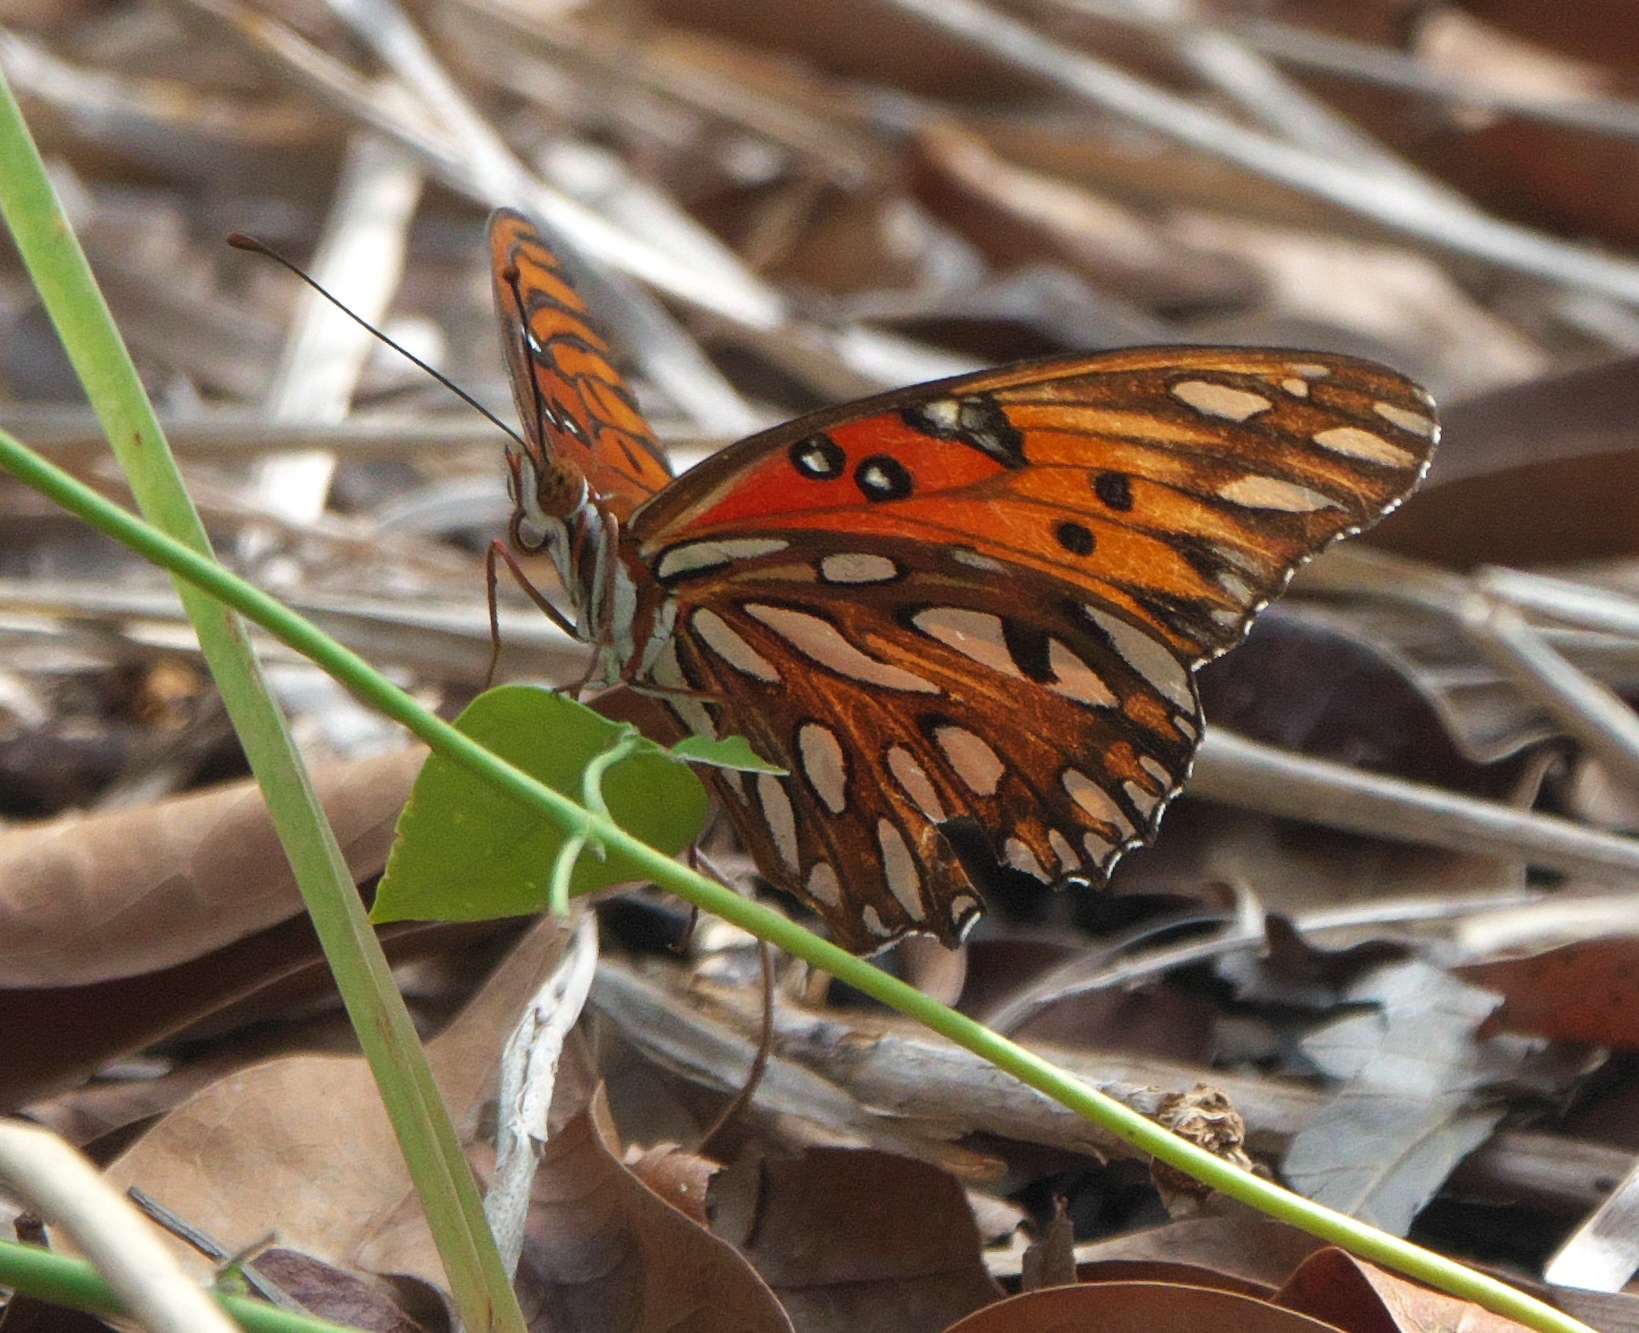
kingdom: Animalia
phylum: Arthropoda
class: Insecta
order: Lepidoptera
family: Nymphalidae
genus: Dione
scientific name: Dione vanillae
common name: Gulf fritillary
